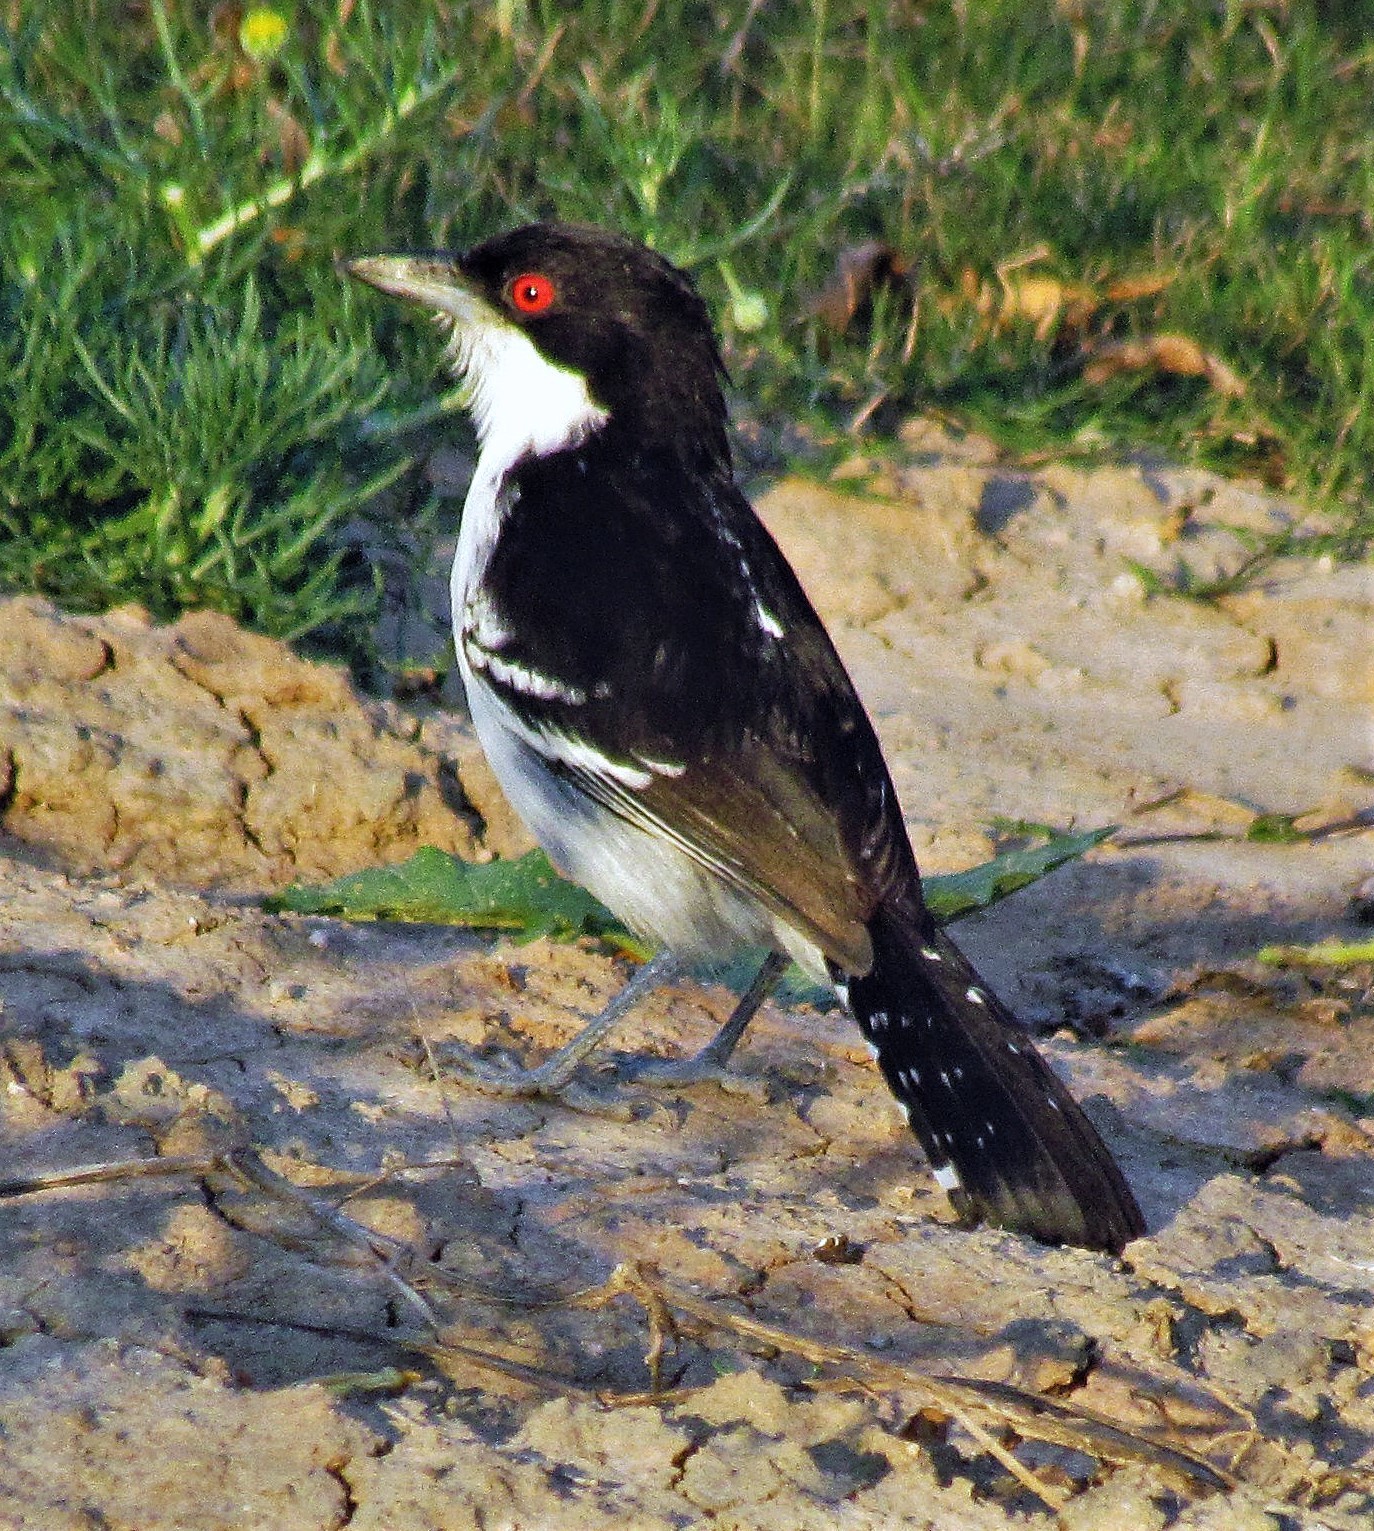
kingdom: Animalia
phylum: Chordata
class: Aves
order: Passeriformes
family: Thamnophilidae
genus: Taraba
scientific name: Taraba major
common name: Great antshrike
